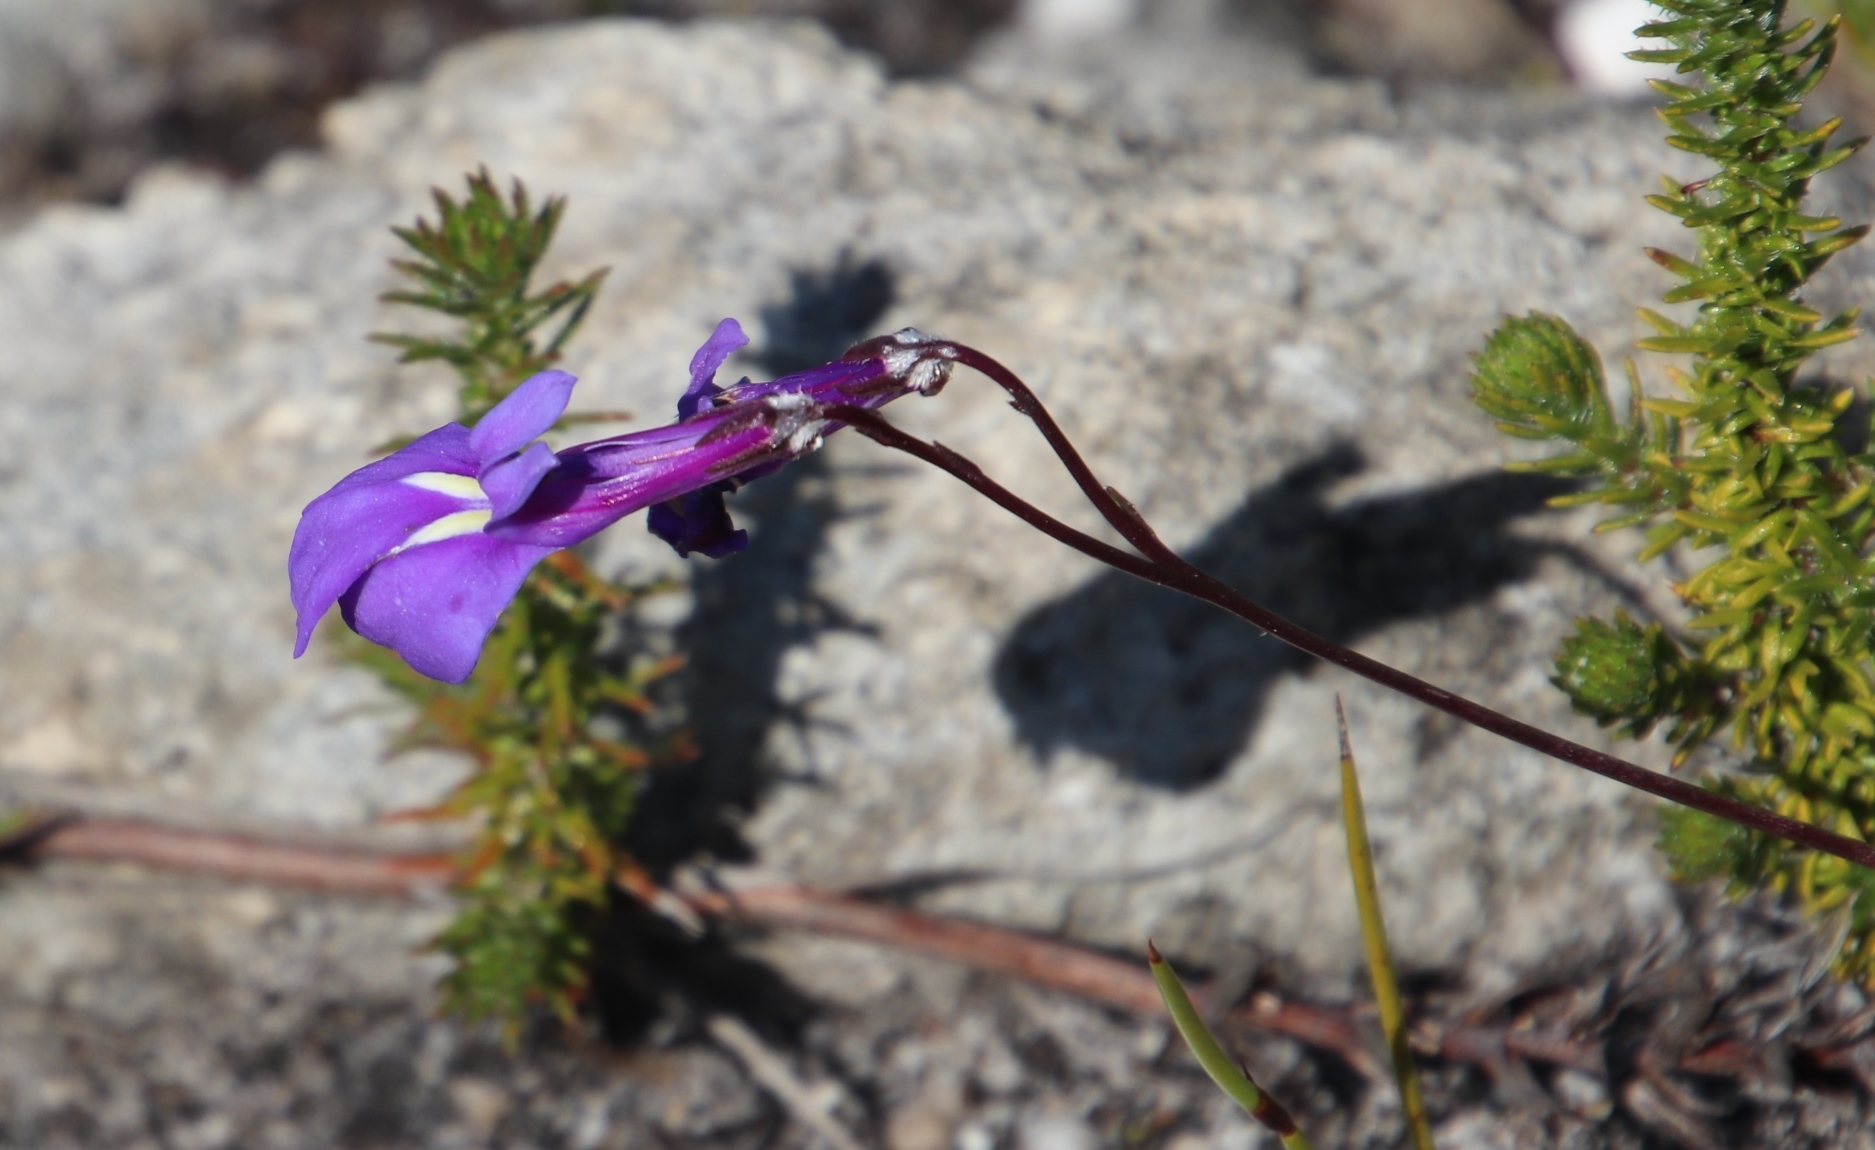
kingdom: Plantae
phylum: Tracheophyta
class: Magnoliopsida
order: Asterales
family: Campanulaceae
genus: Lobelia
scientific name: Lobelia coronopifolia
